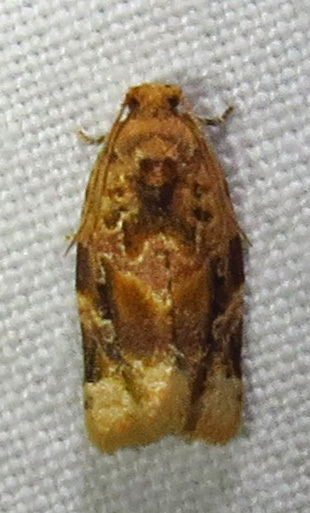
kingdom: Animalia
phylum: Arthropoda
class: Insecta
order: Lepidoptera
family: Tortricidae
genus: Argyrotaenia
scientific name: Argyrotaenia velutinana
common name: Red-banded leafroller moth
